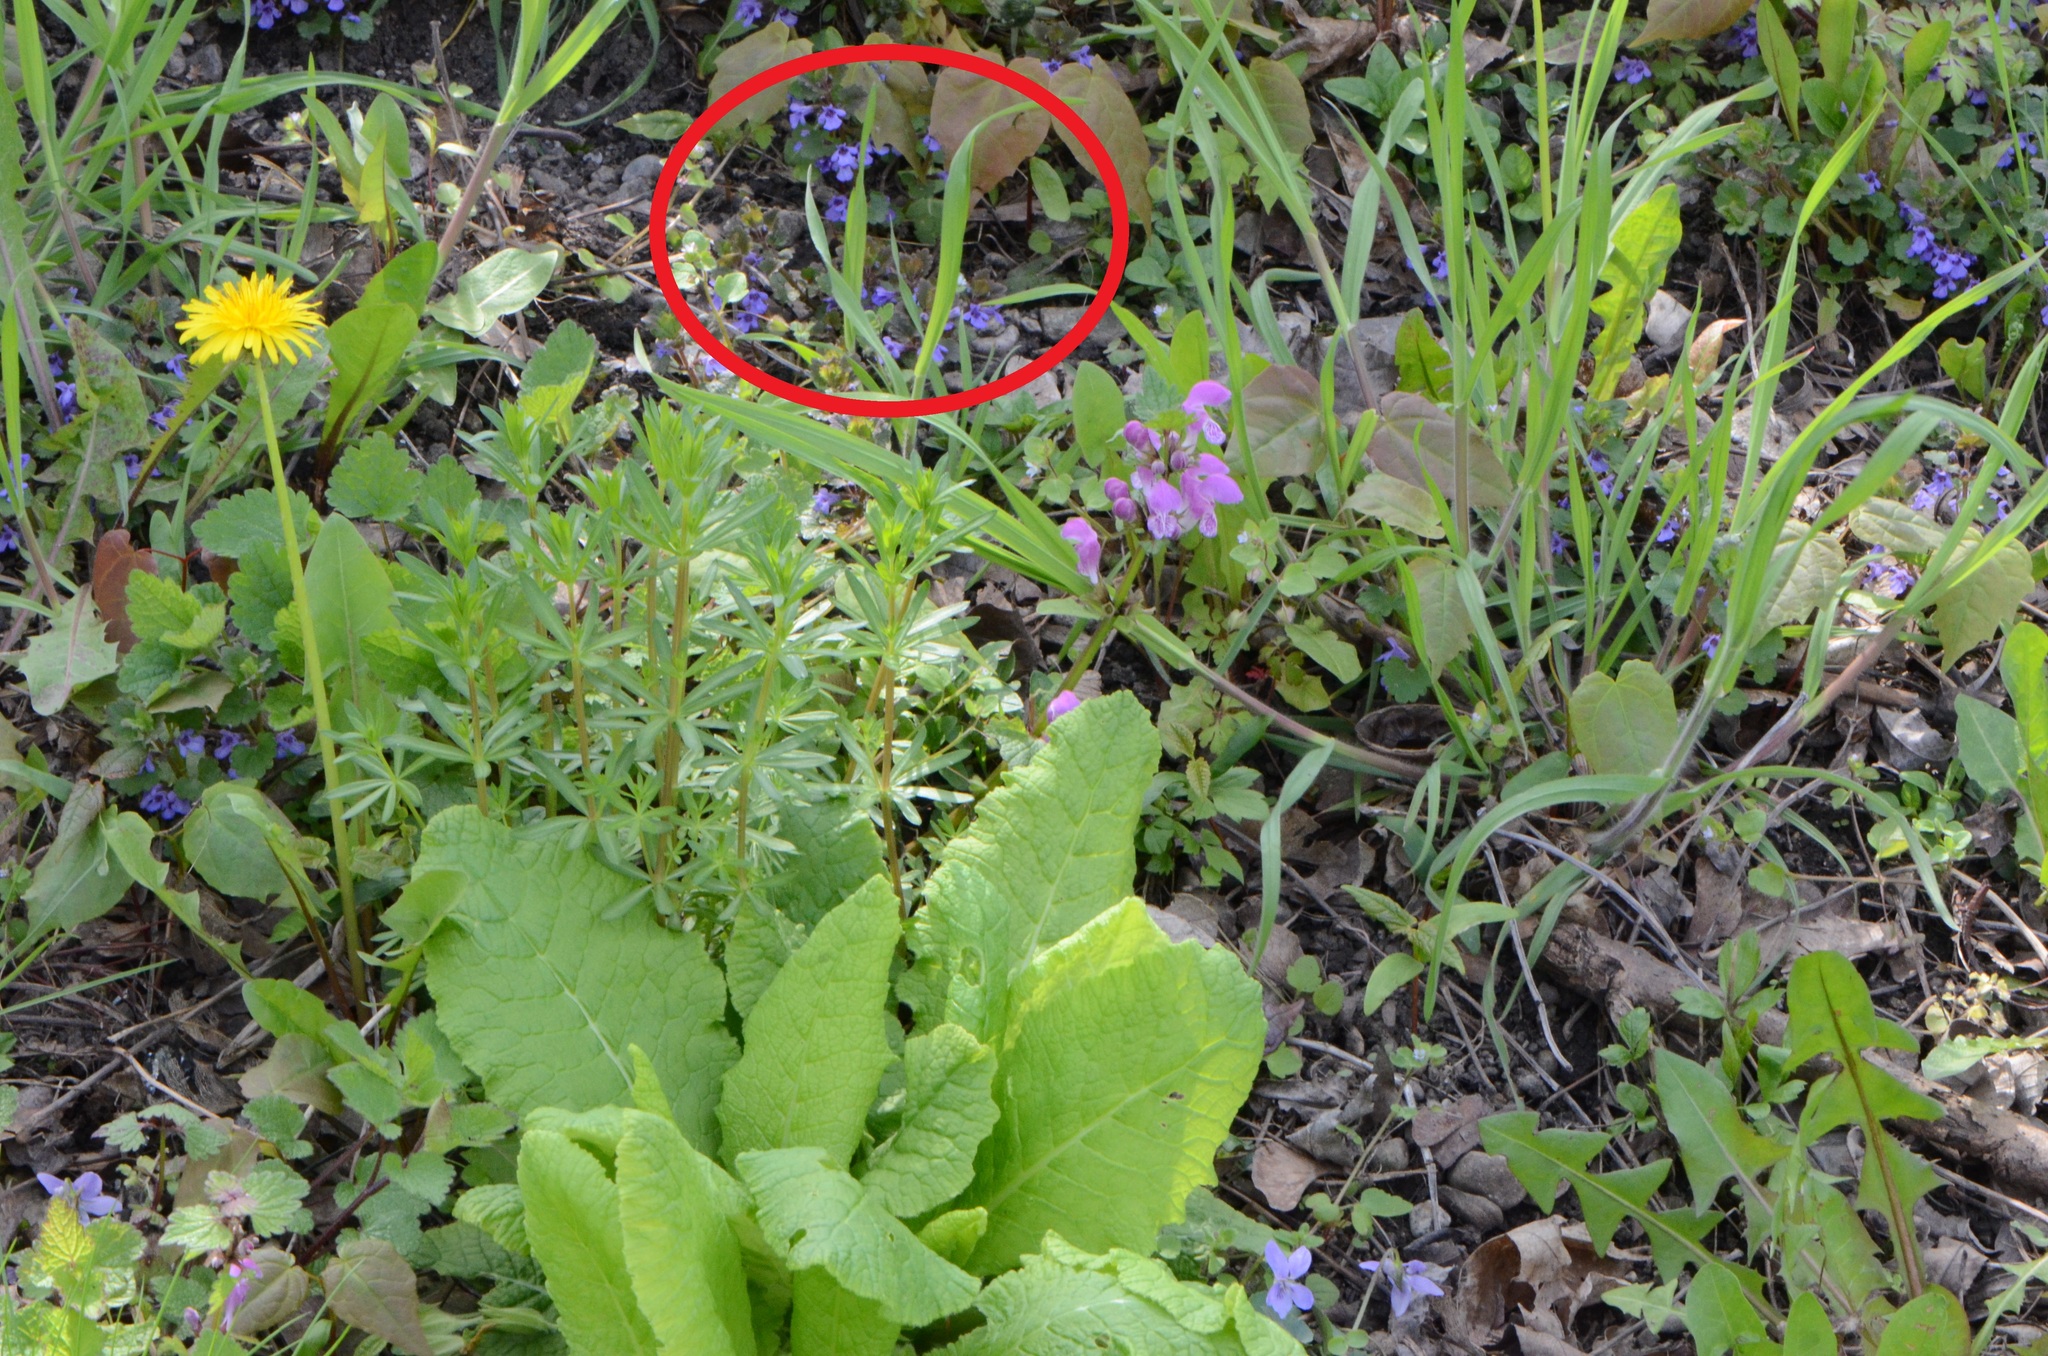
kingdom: Plantae
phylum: Tracheophyta
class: Magnoliopsida
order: Lamiales
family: Lamiaceae
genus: Glechoma
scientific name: Glechoma hederacea
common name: Ground ivy
